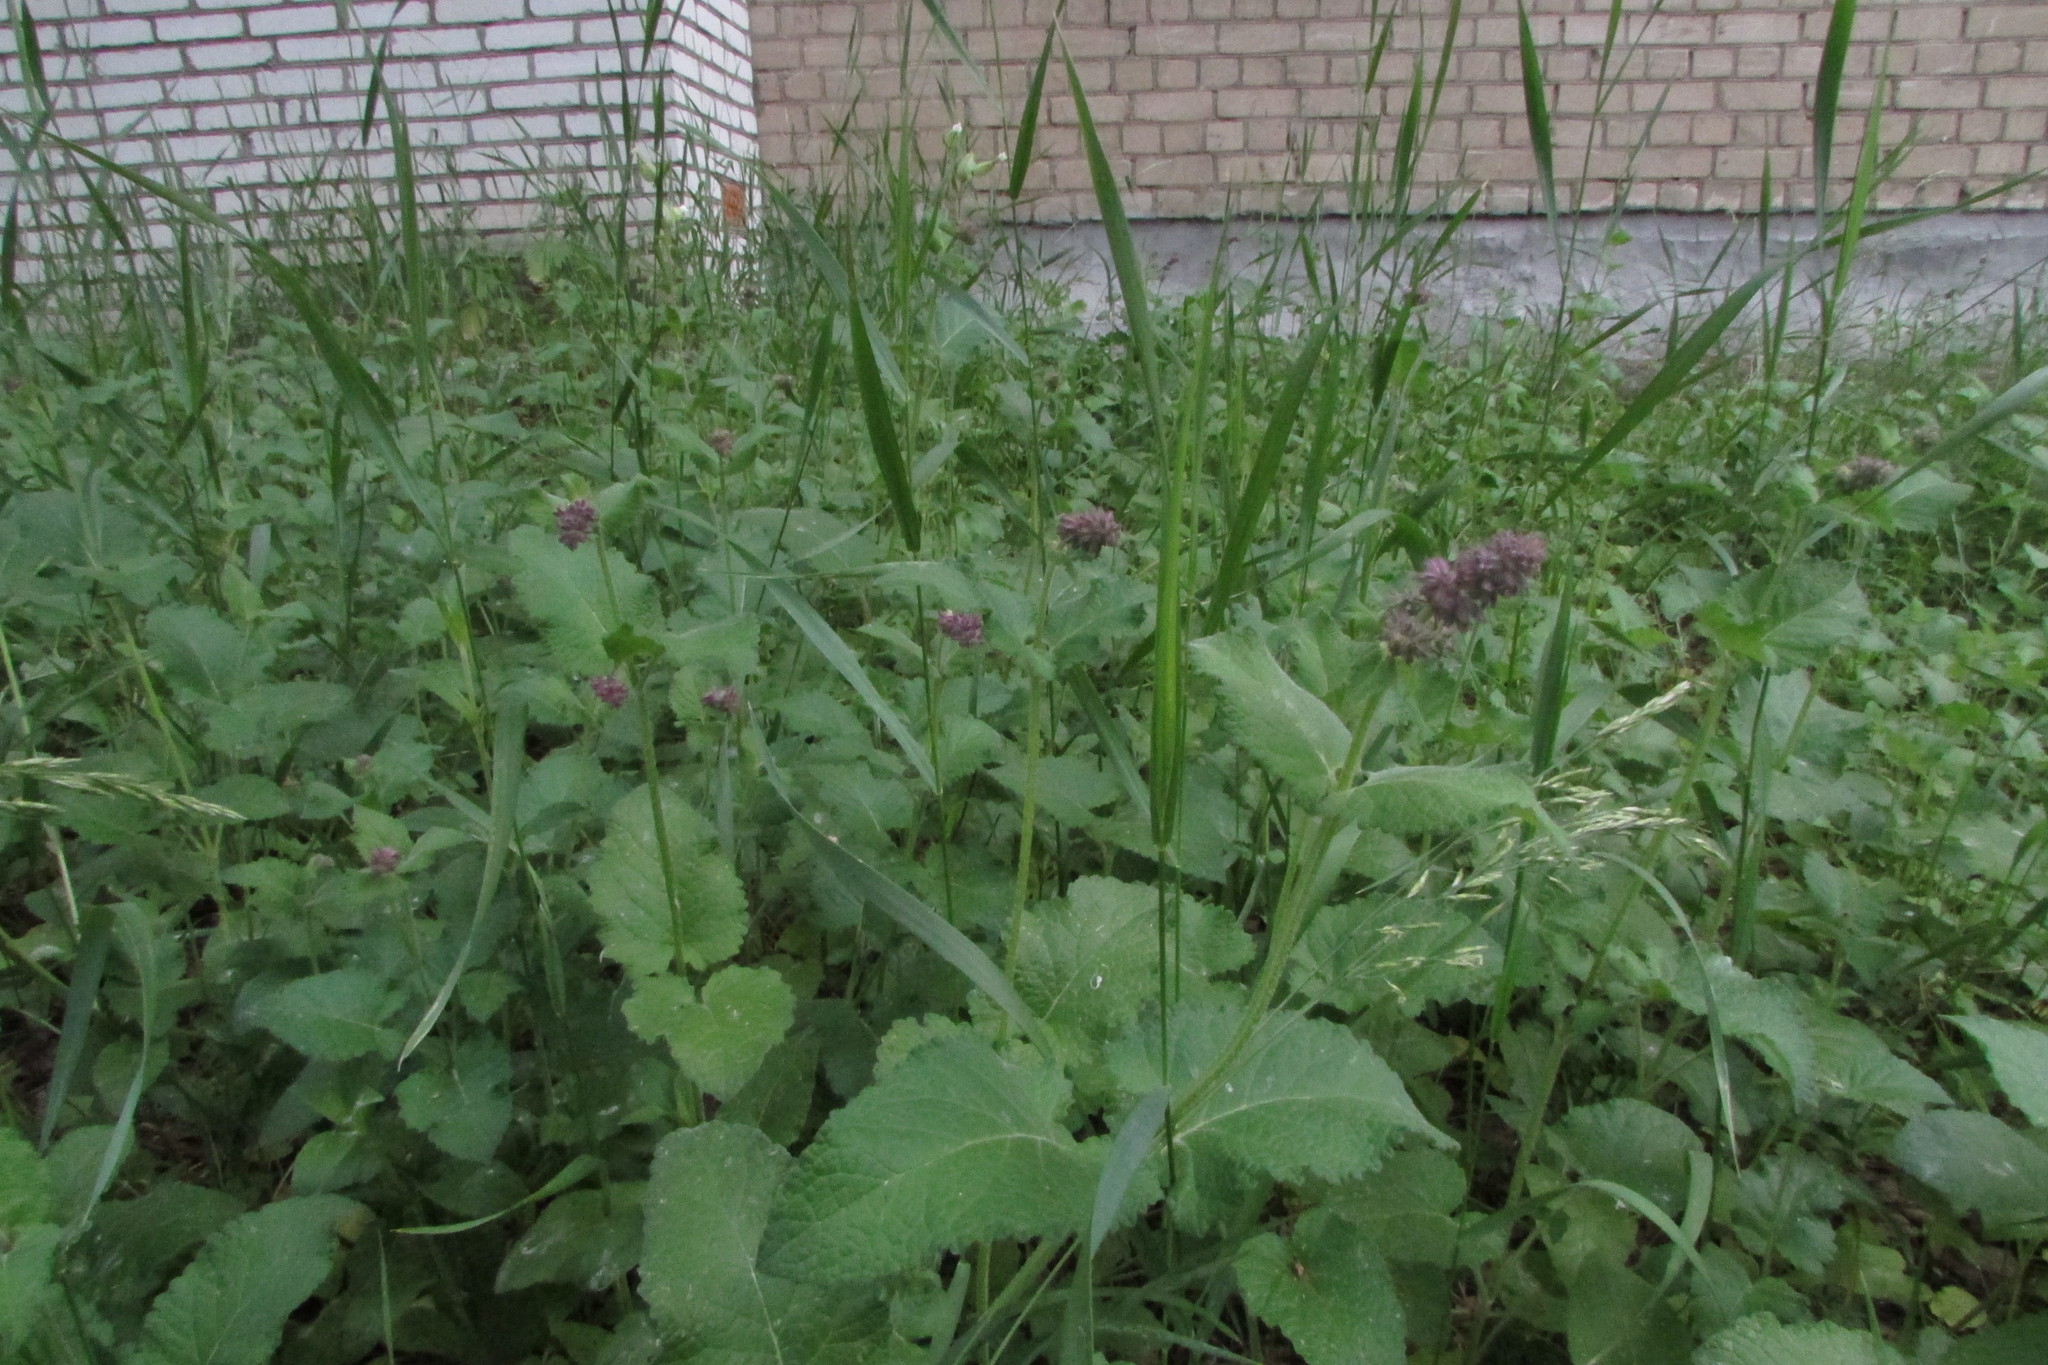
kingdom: Plantae
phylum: Tracheophyta
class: Magnoliopsida
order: Lamiales
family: Lamiaceae
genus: Salvia
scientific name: Salvia verticillata
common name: Whorled clary
